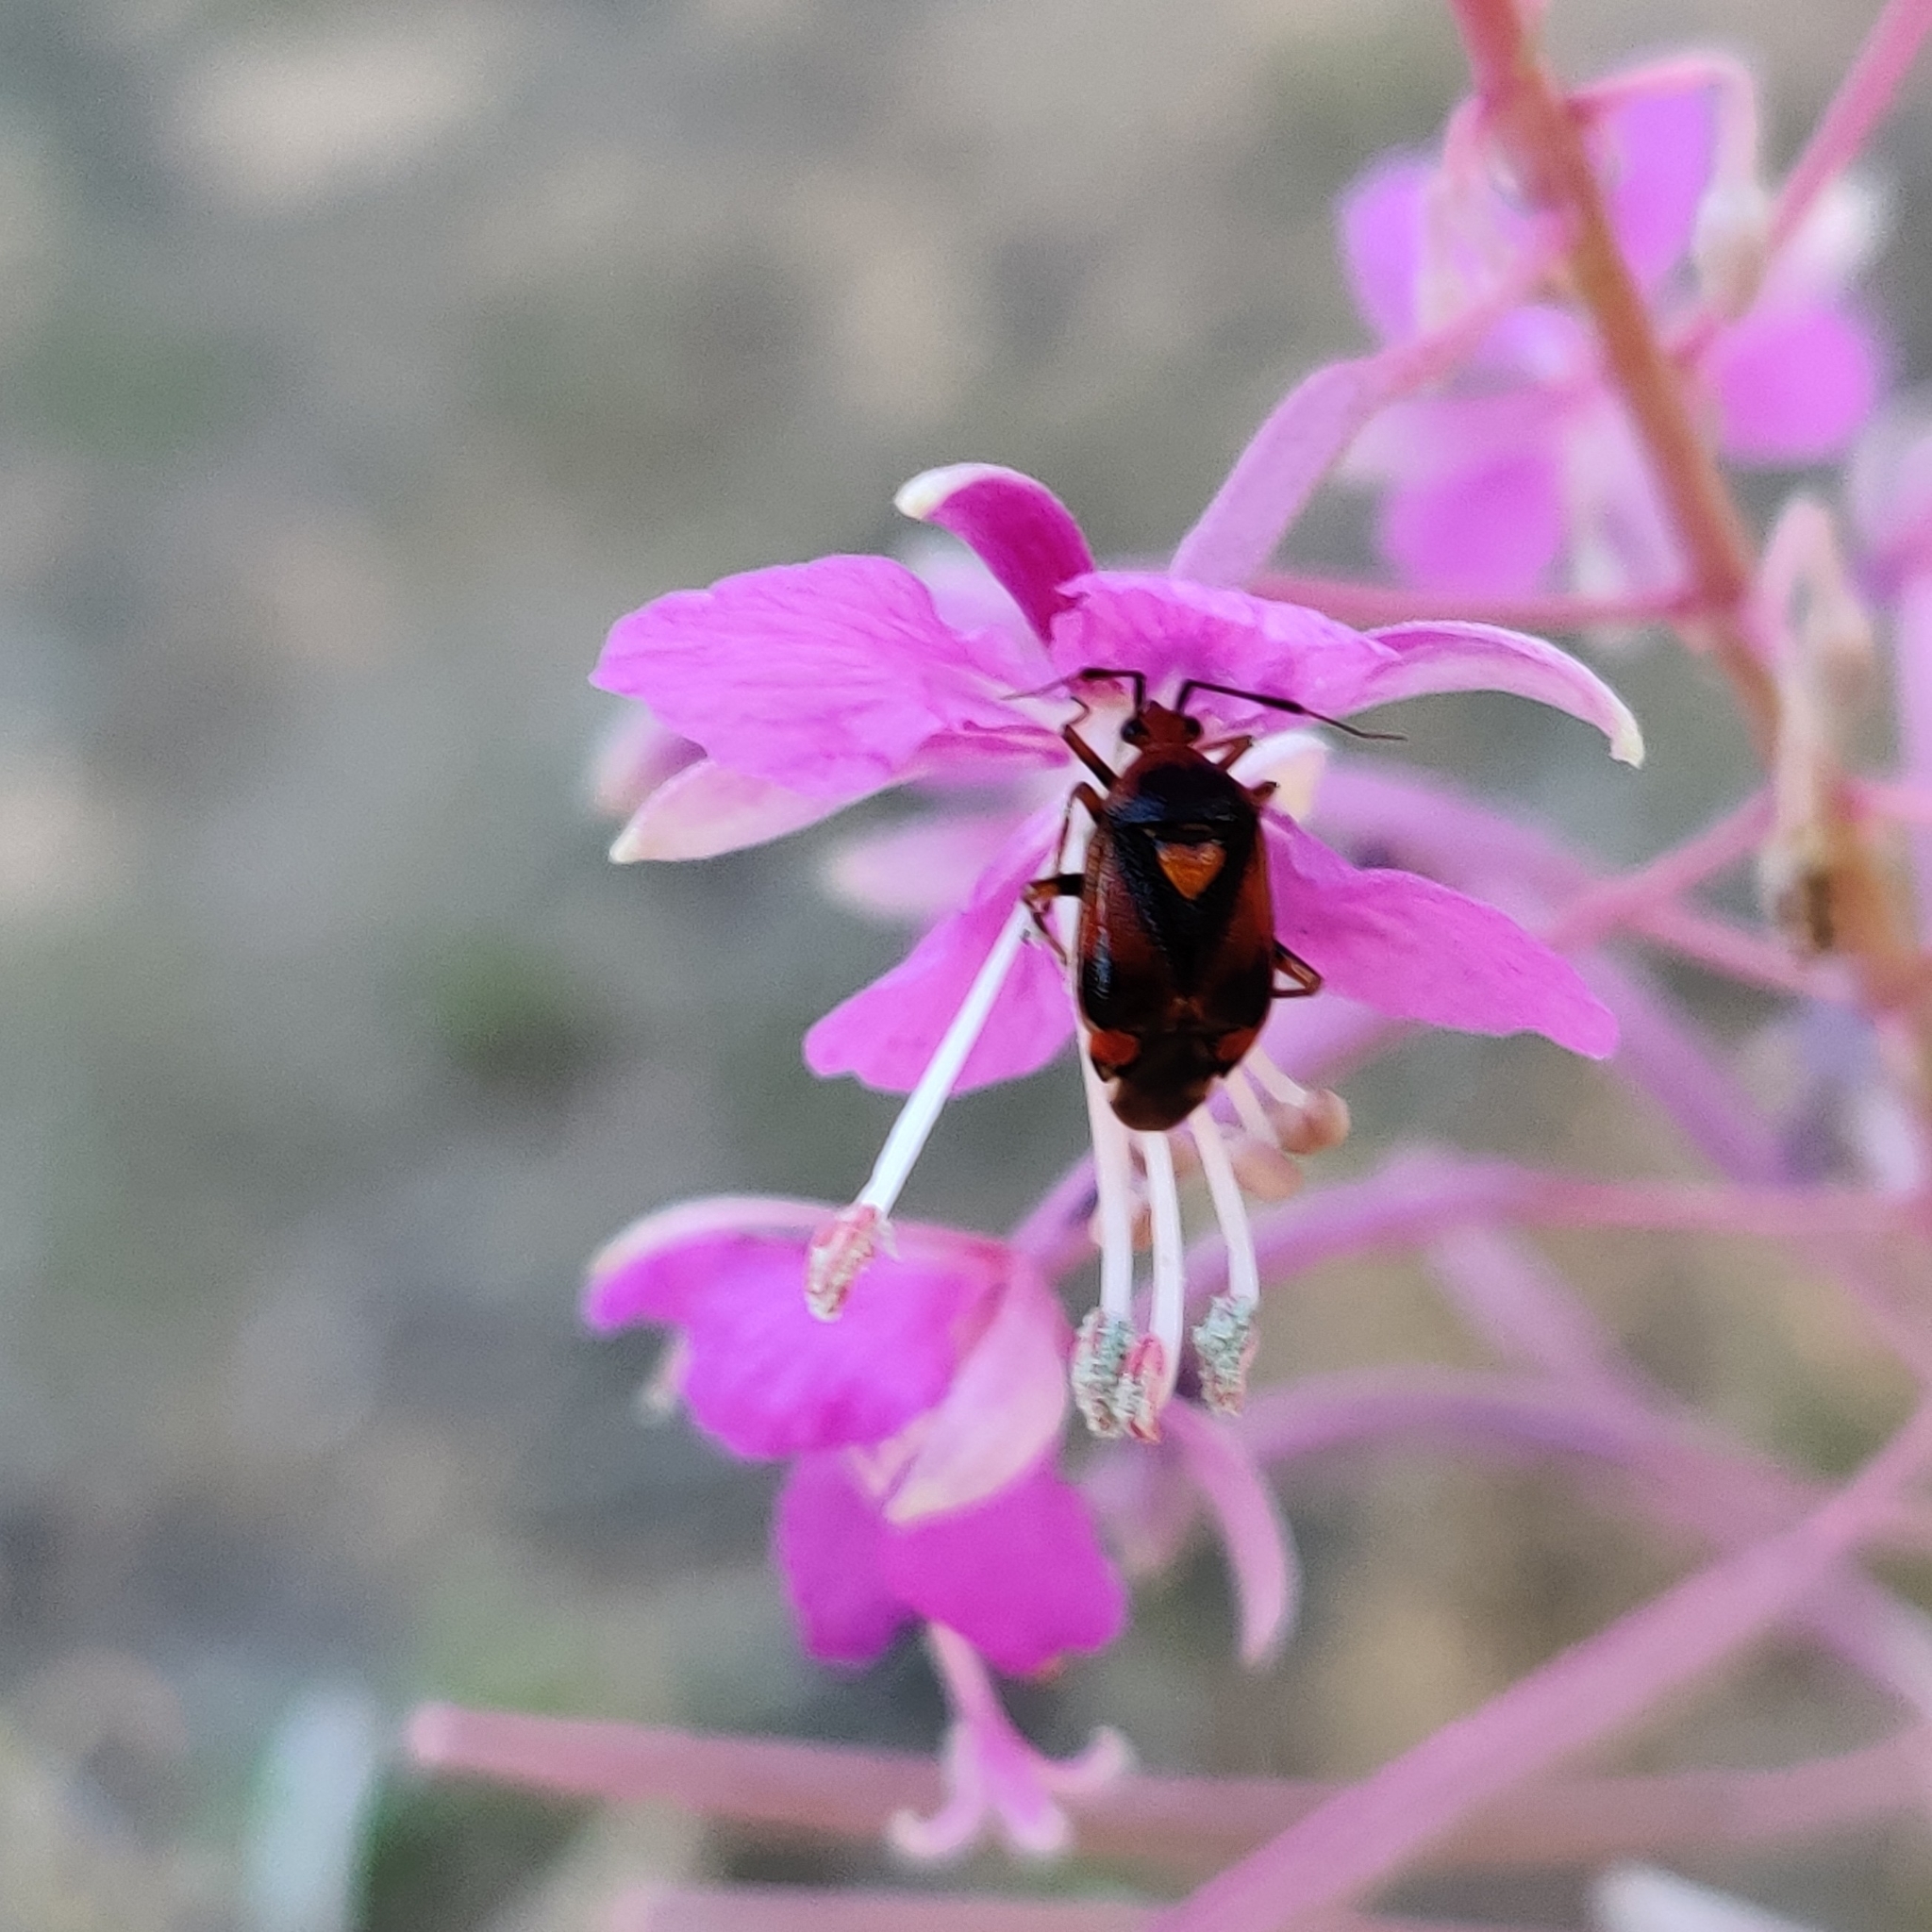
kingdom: Animalia
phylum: Arthropoda
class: Insecta
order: Hemiptera
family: Miridae
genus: Deraeocoris
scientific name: Deraeocoris ruber
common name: Plant bug
